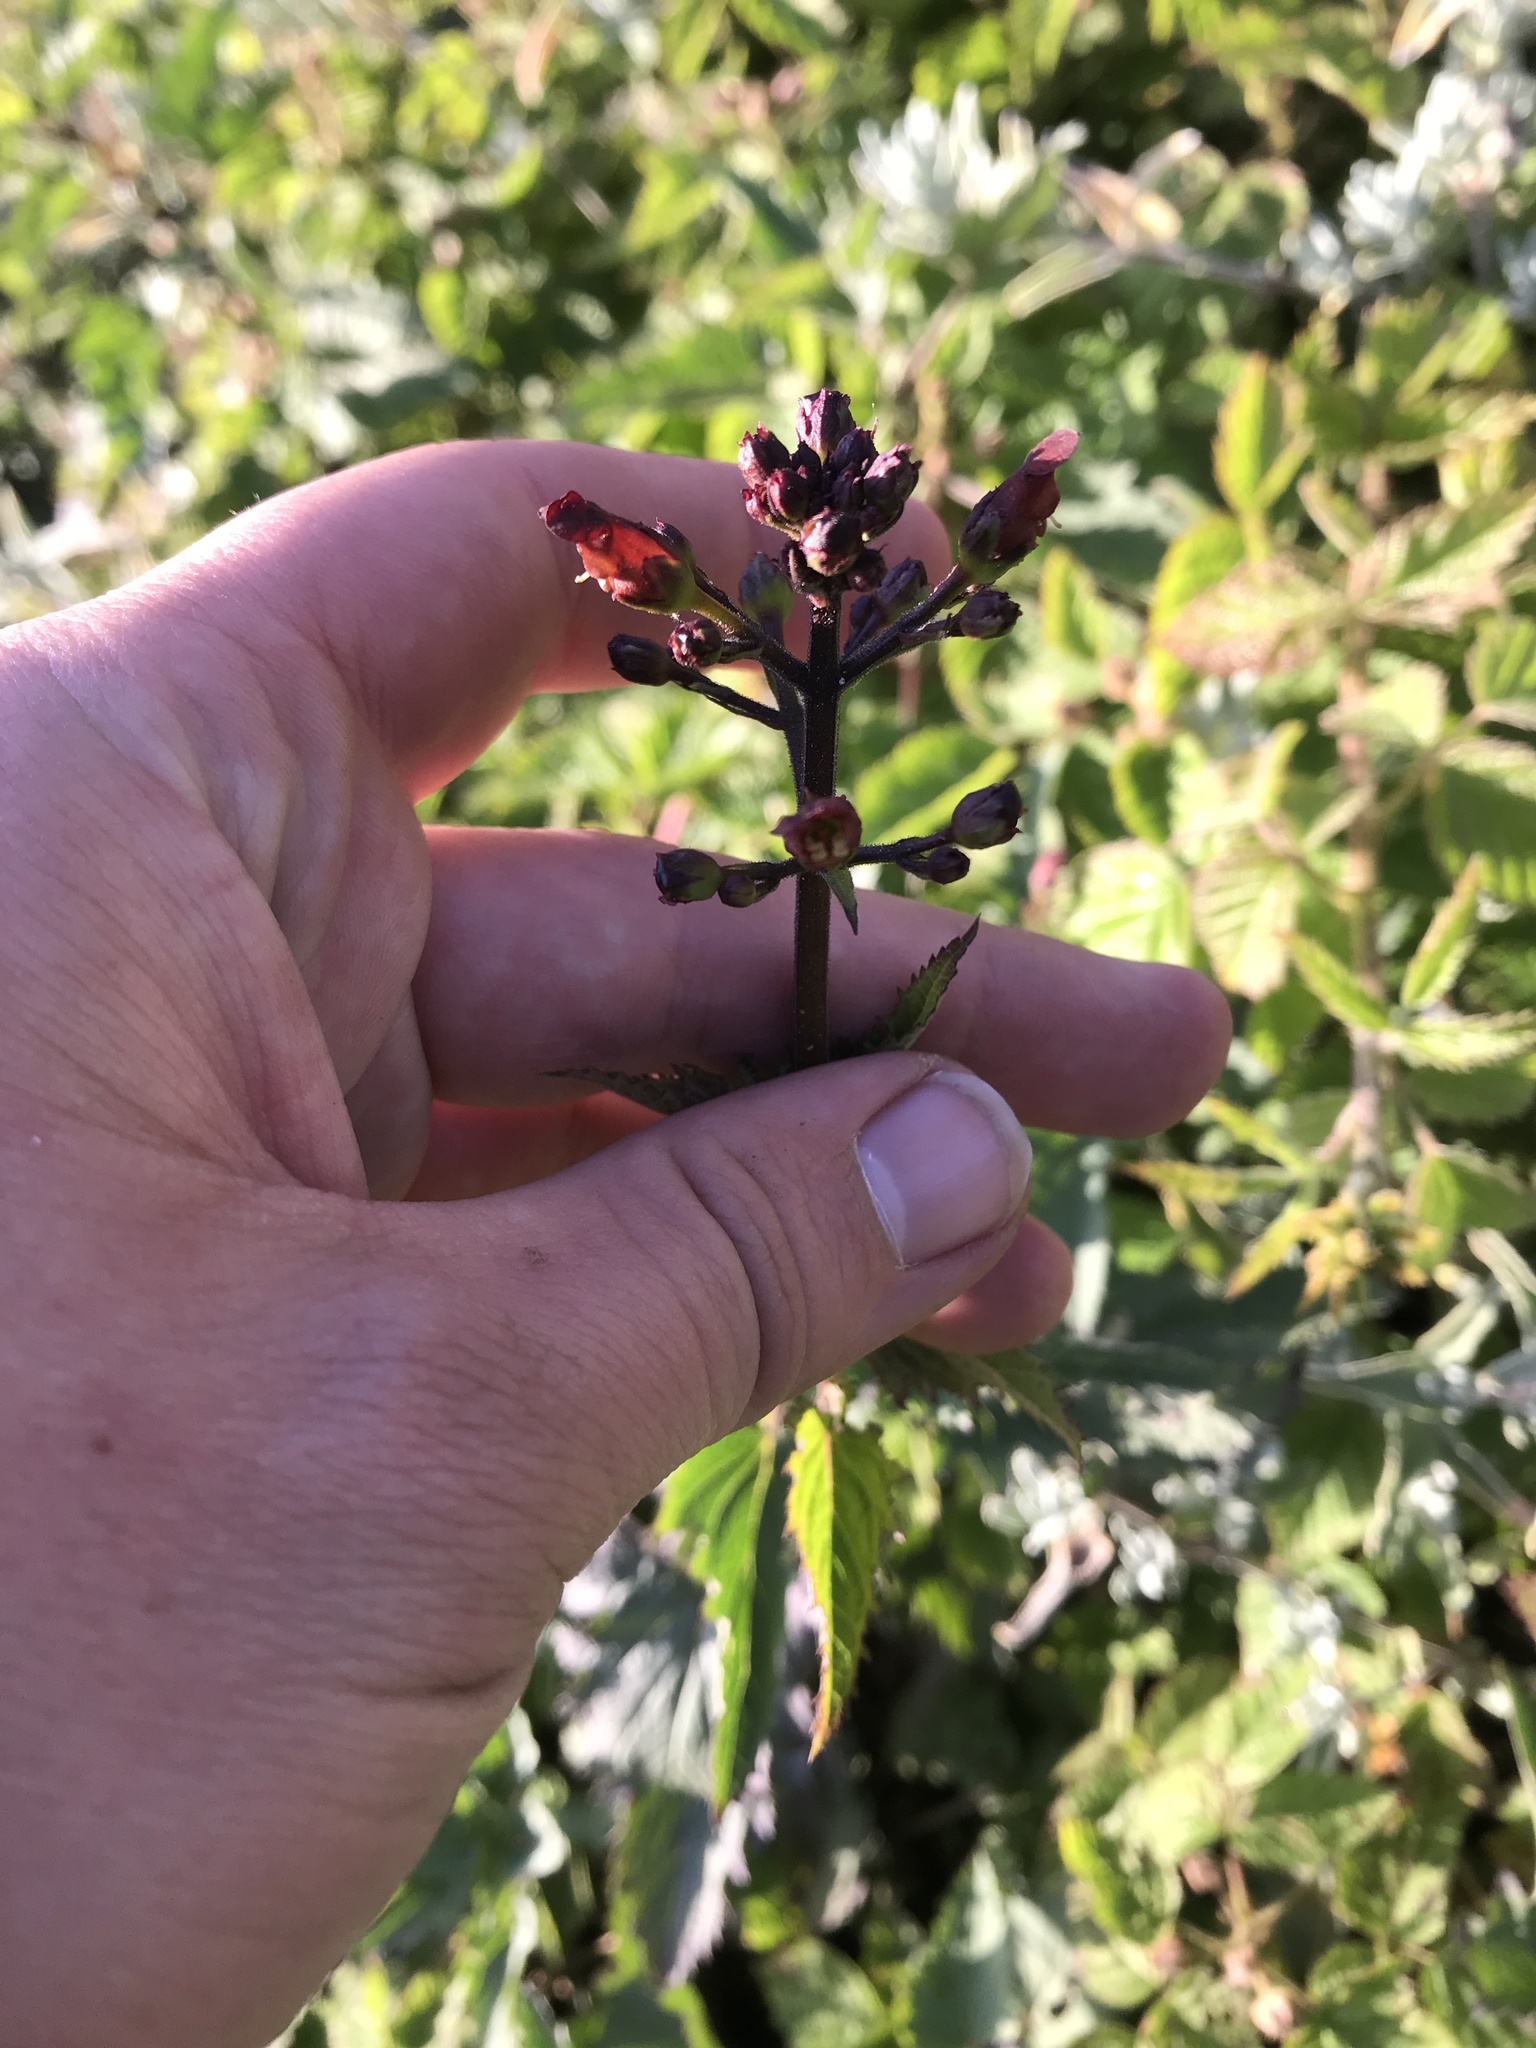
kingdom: Plantae
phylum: Tracheophyta
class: Magnoliopsida
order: Lamiales
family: Scrophulariaceae
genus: Scrophularia
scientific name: Scrophularia californica
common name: California figwort
